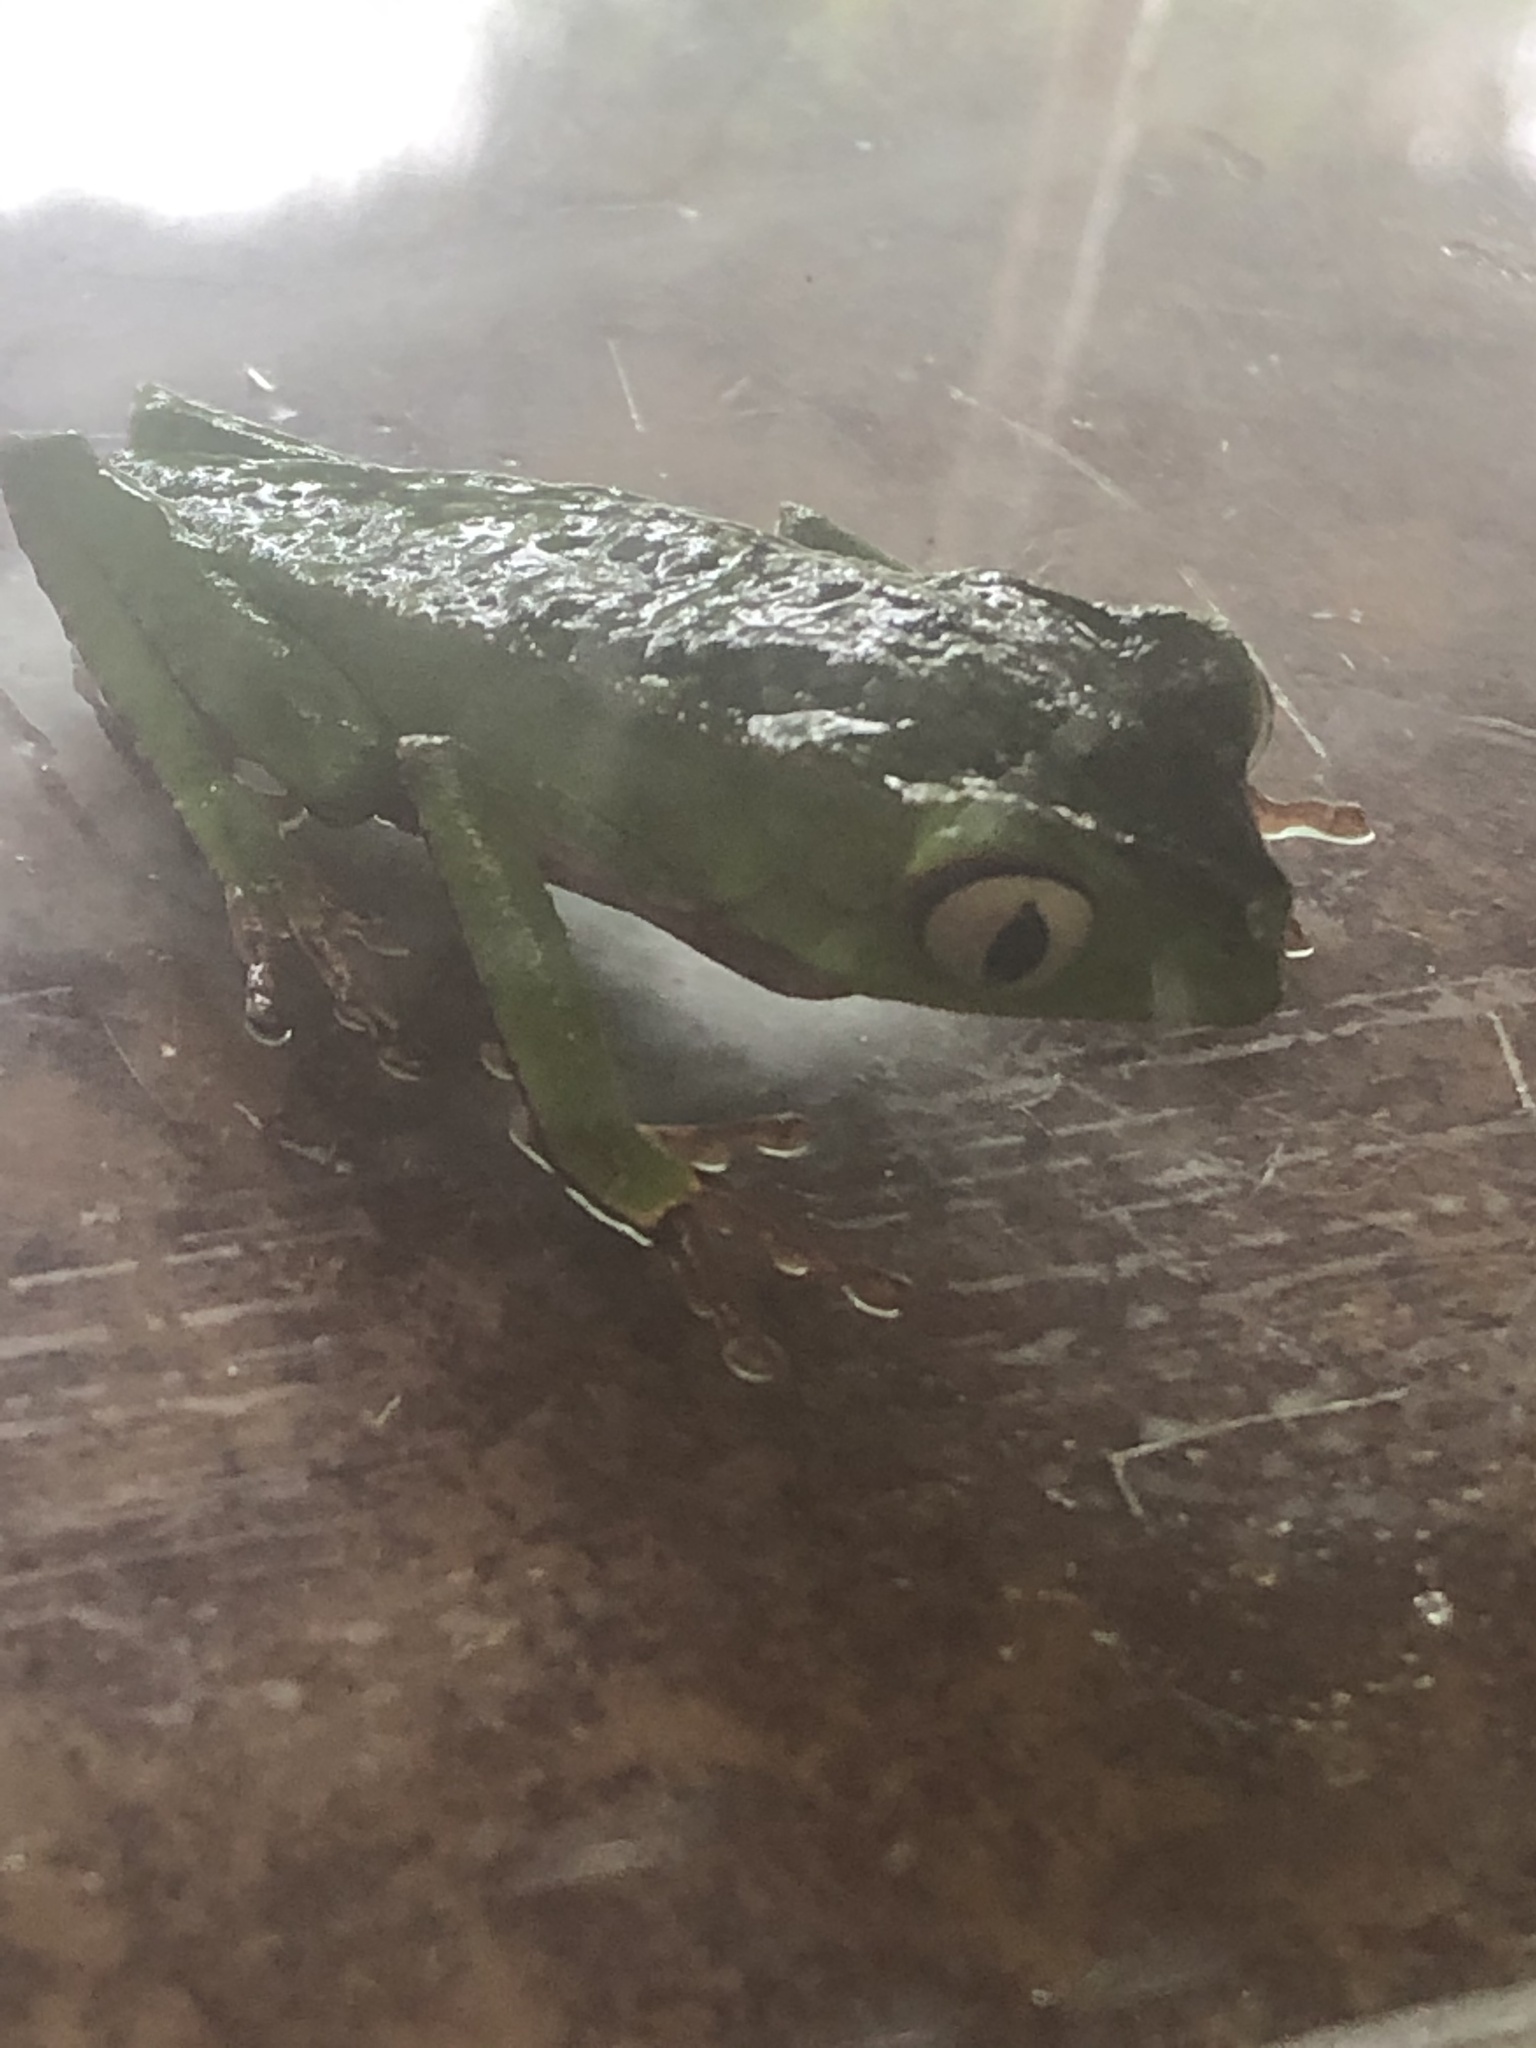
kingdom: Animalia
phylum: Chordata
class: Amphibia
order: Anura
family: Phyllomedusidae
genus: Phyllomedusa
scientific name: Phyllomedusa vaillantii
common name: White-lined leaf frog
